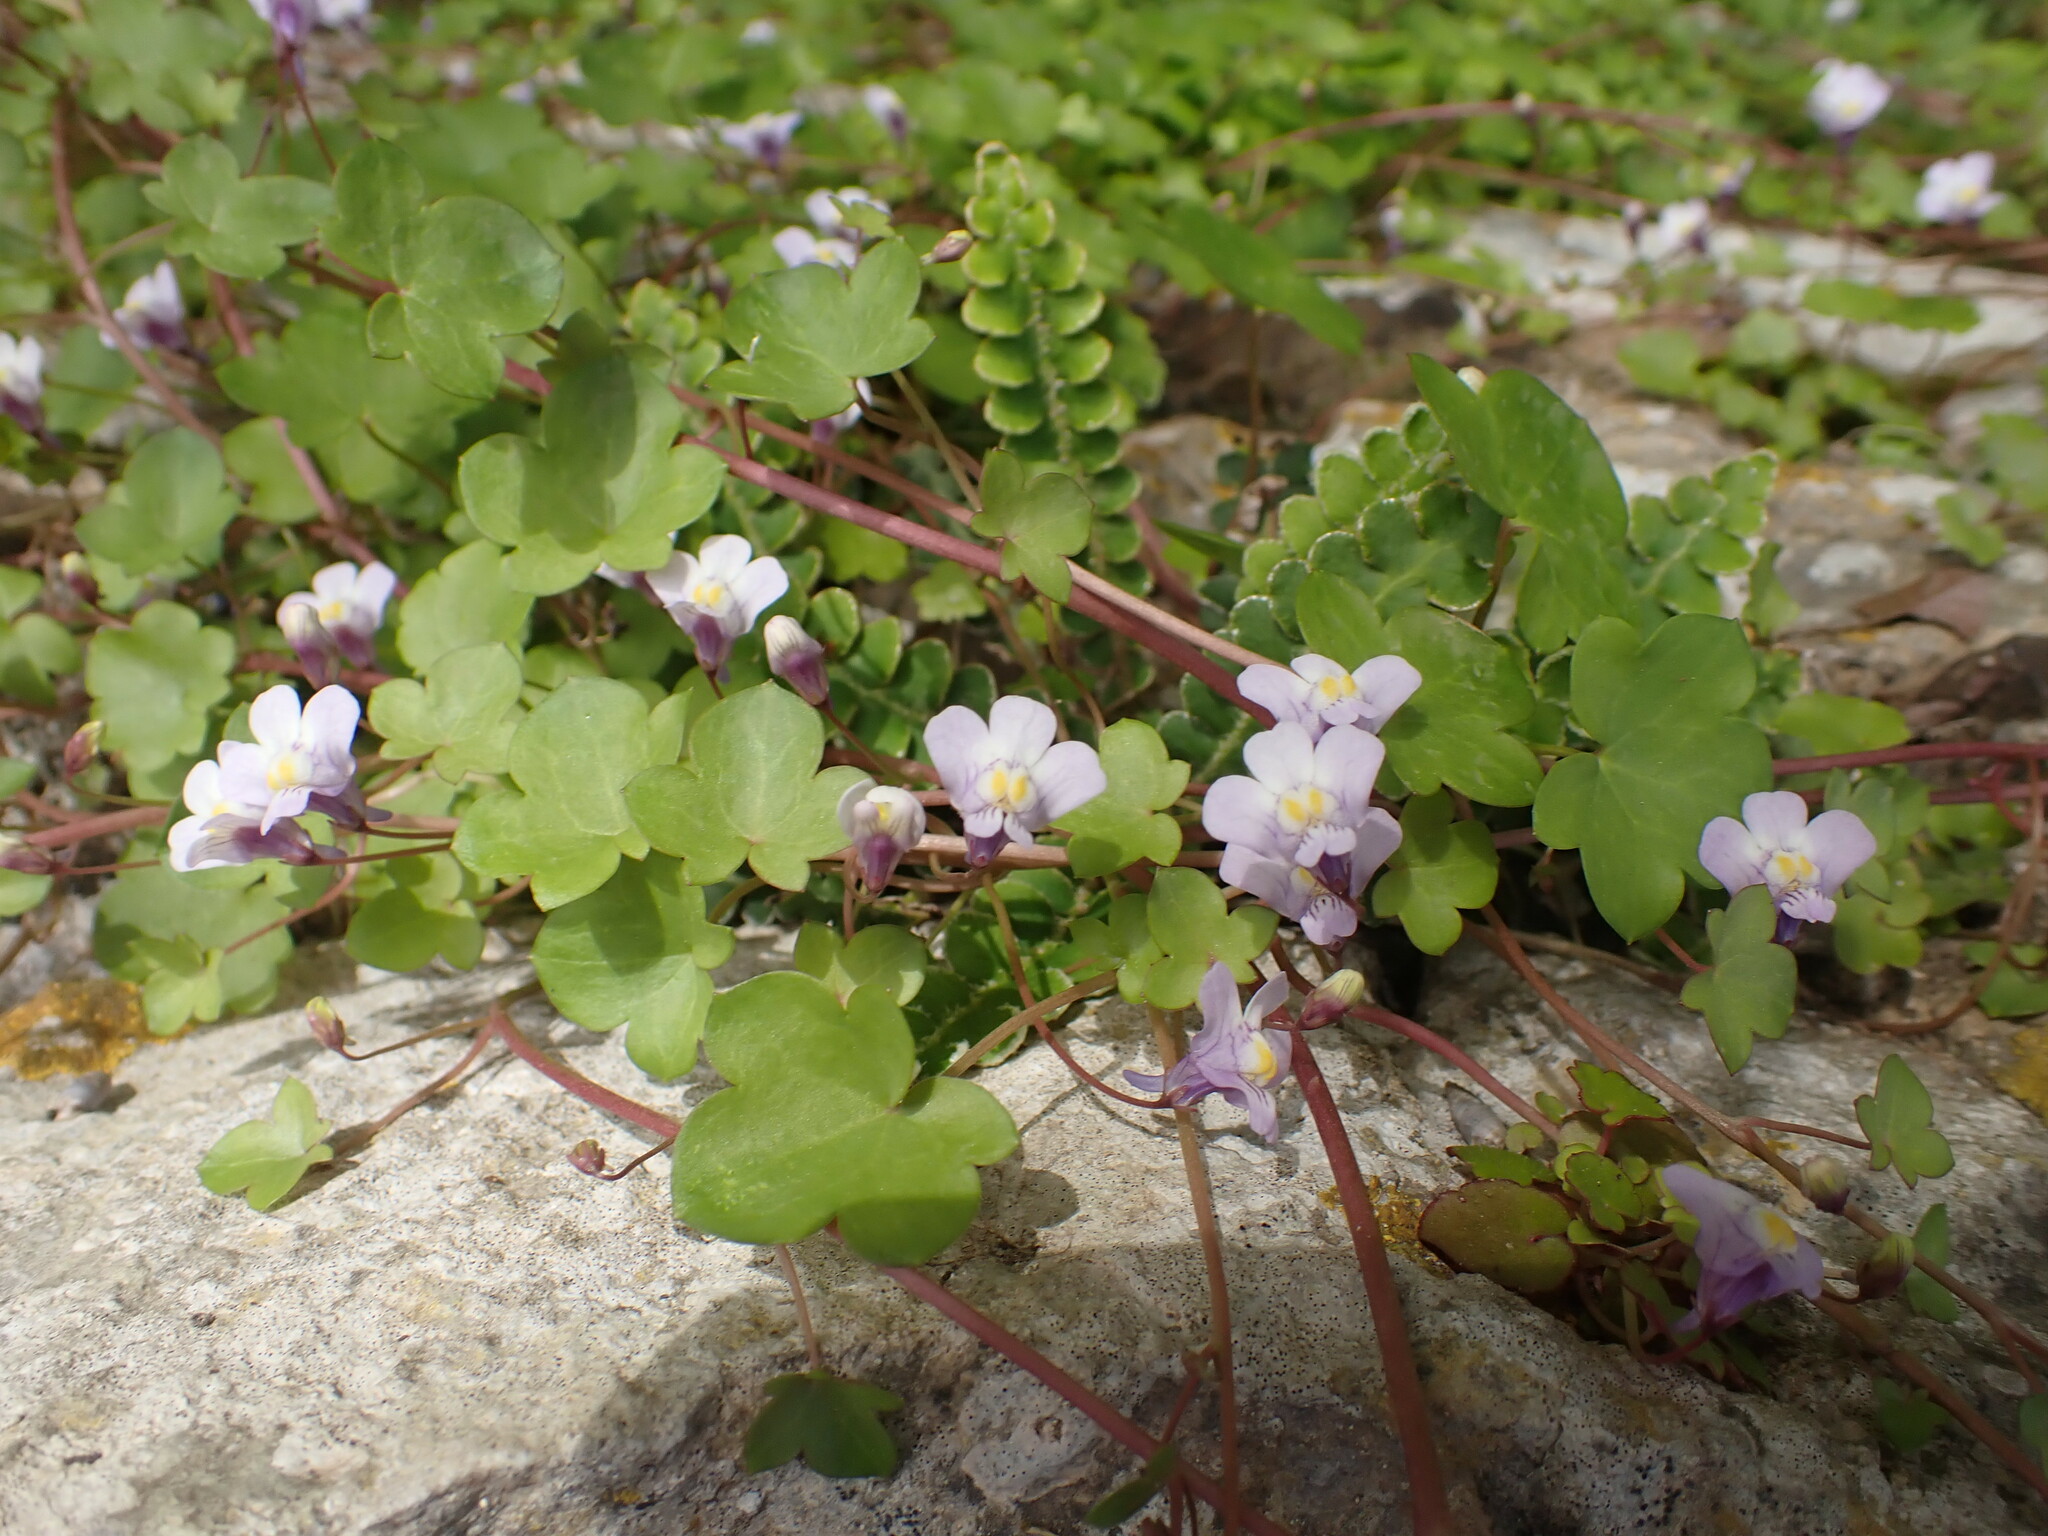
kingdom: Plantae
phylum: Tracheophyta
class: Magnoliopsida
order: Lamiales
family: Plantaginaceae
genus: Cymbalaria
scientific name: Cymbalaria muralis
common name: Ivy-leaved toadflax
